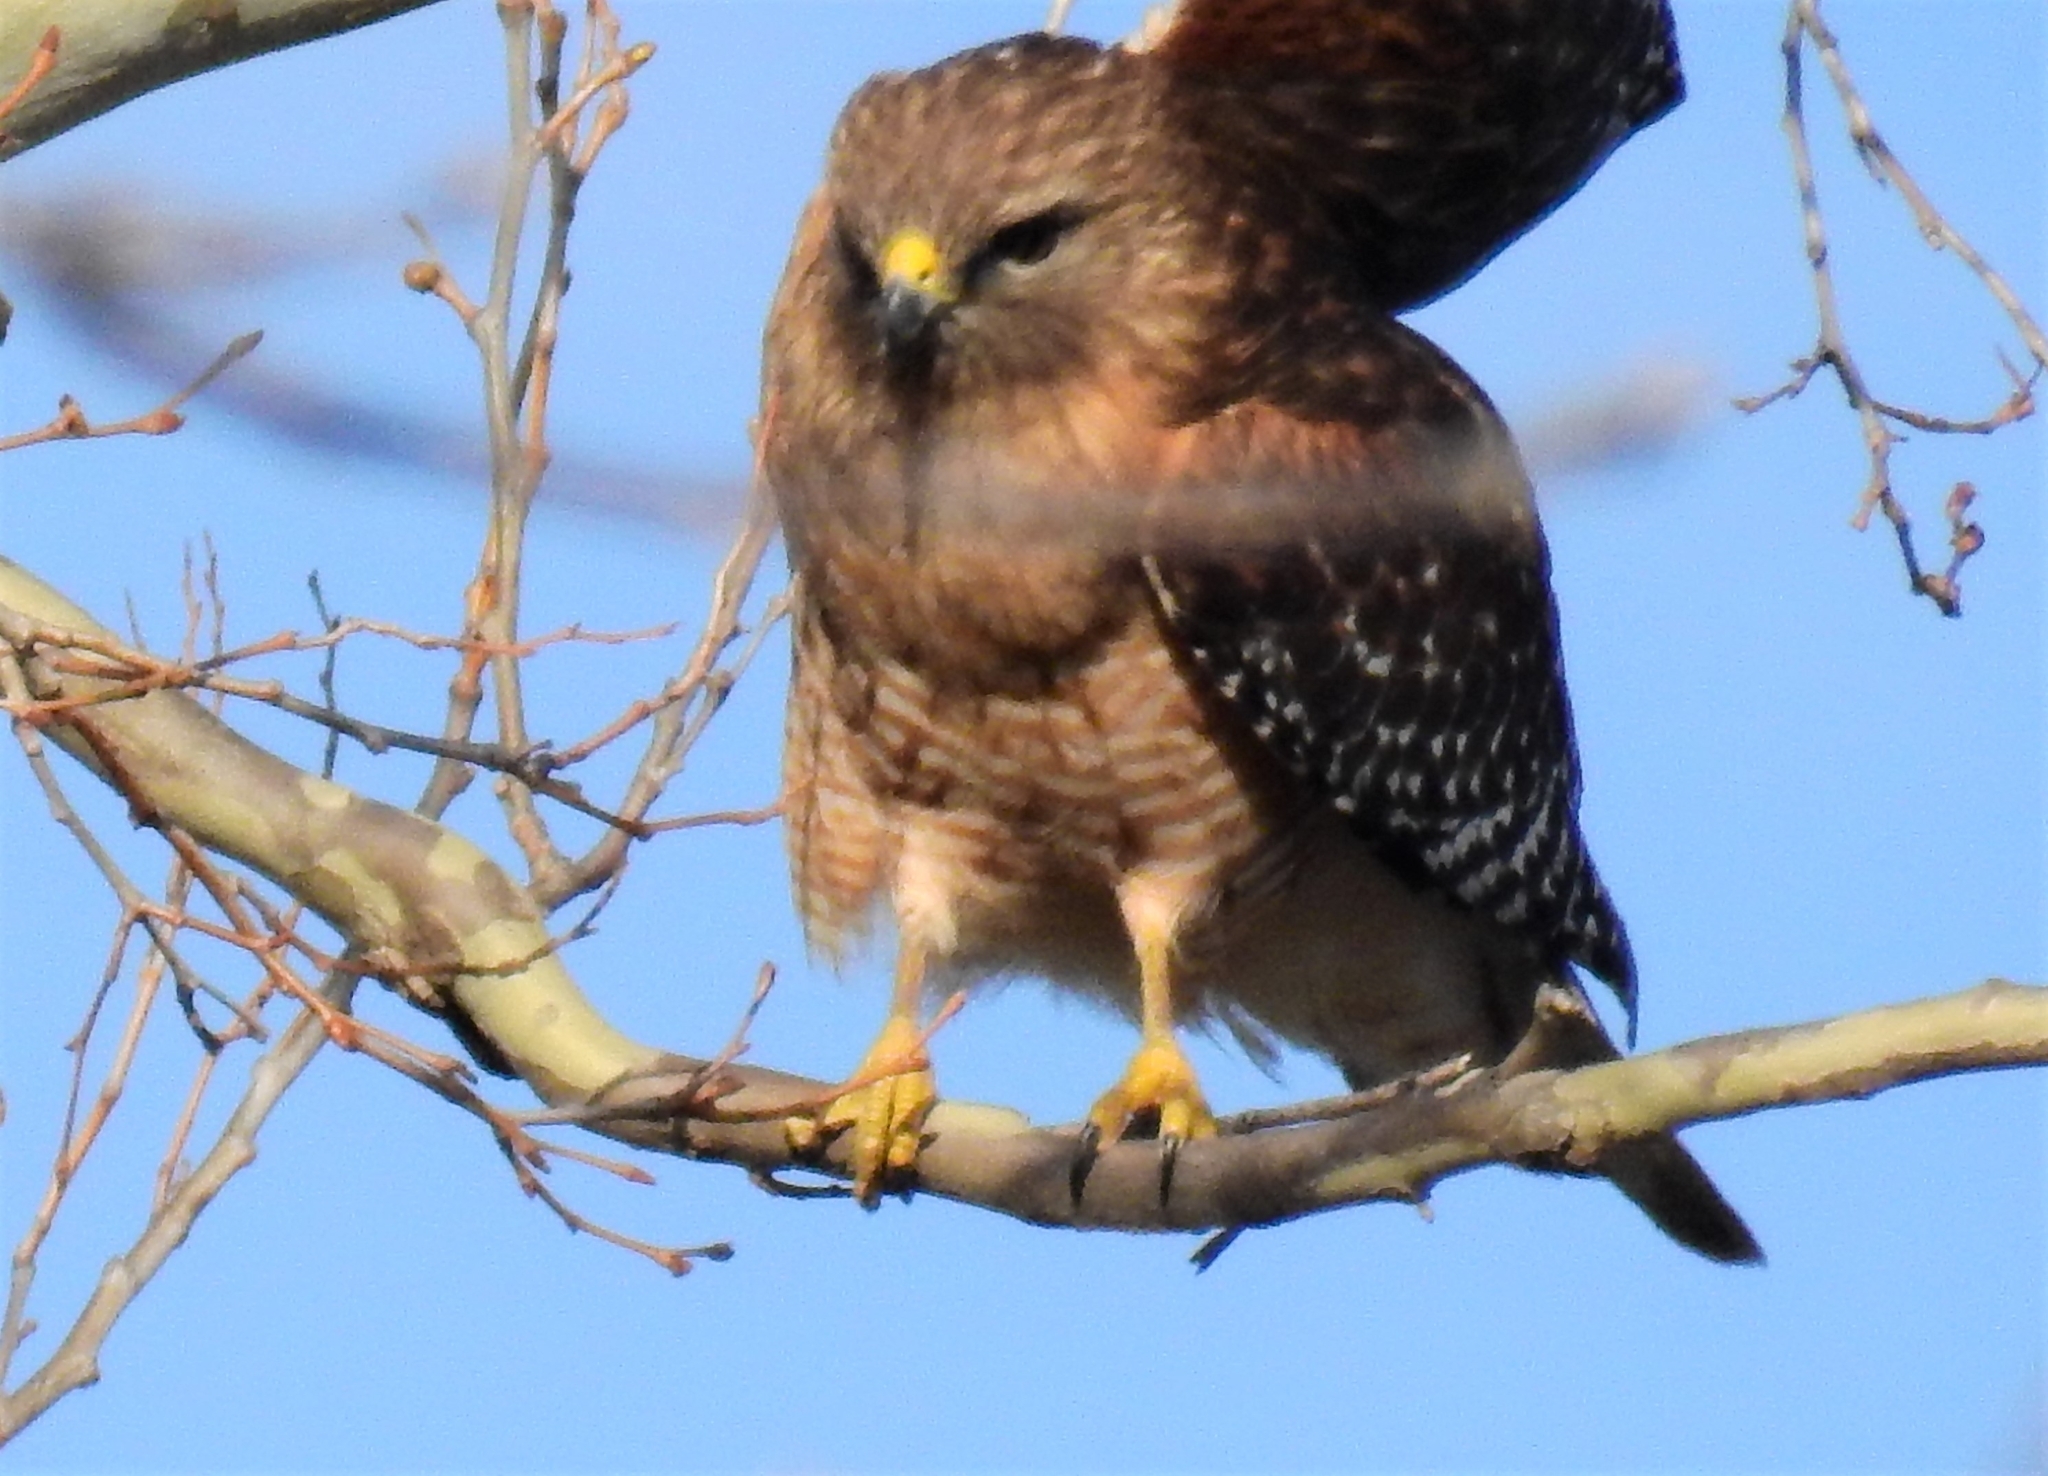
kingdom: Animalia
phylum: Chordata
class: Aves
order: Accipitriformes
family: Accipitridae
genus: Buteo
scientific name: Buteo lineatus
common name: Red-shouldered hawk
